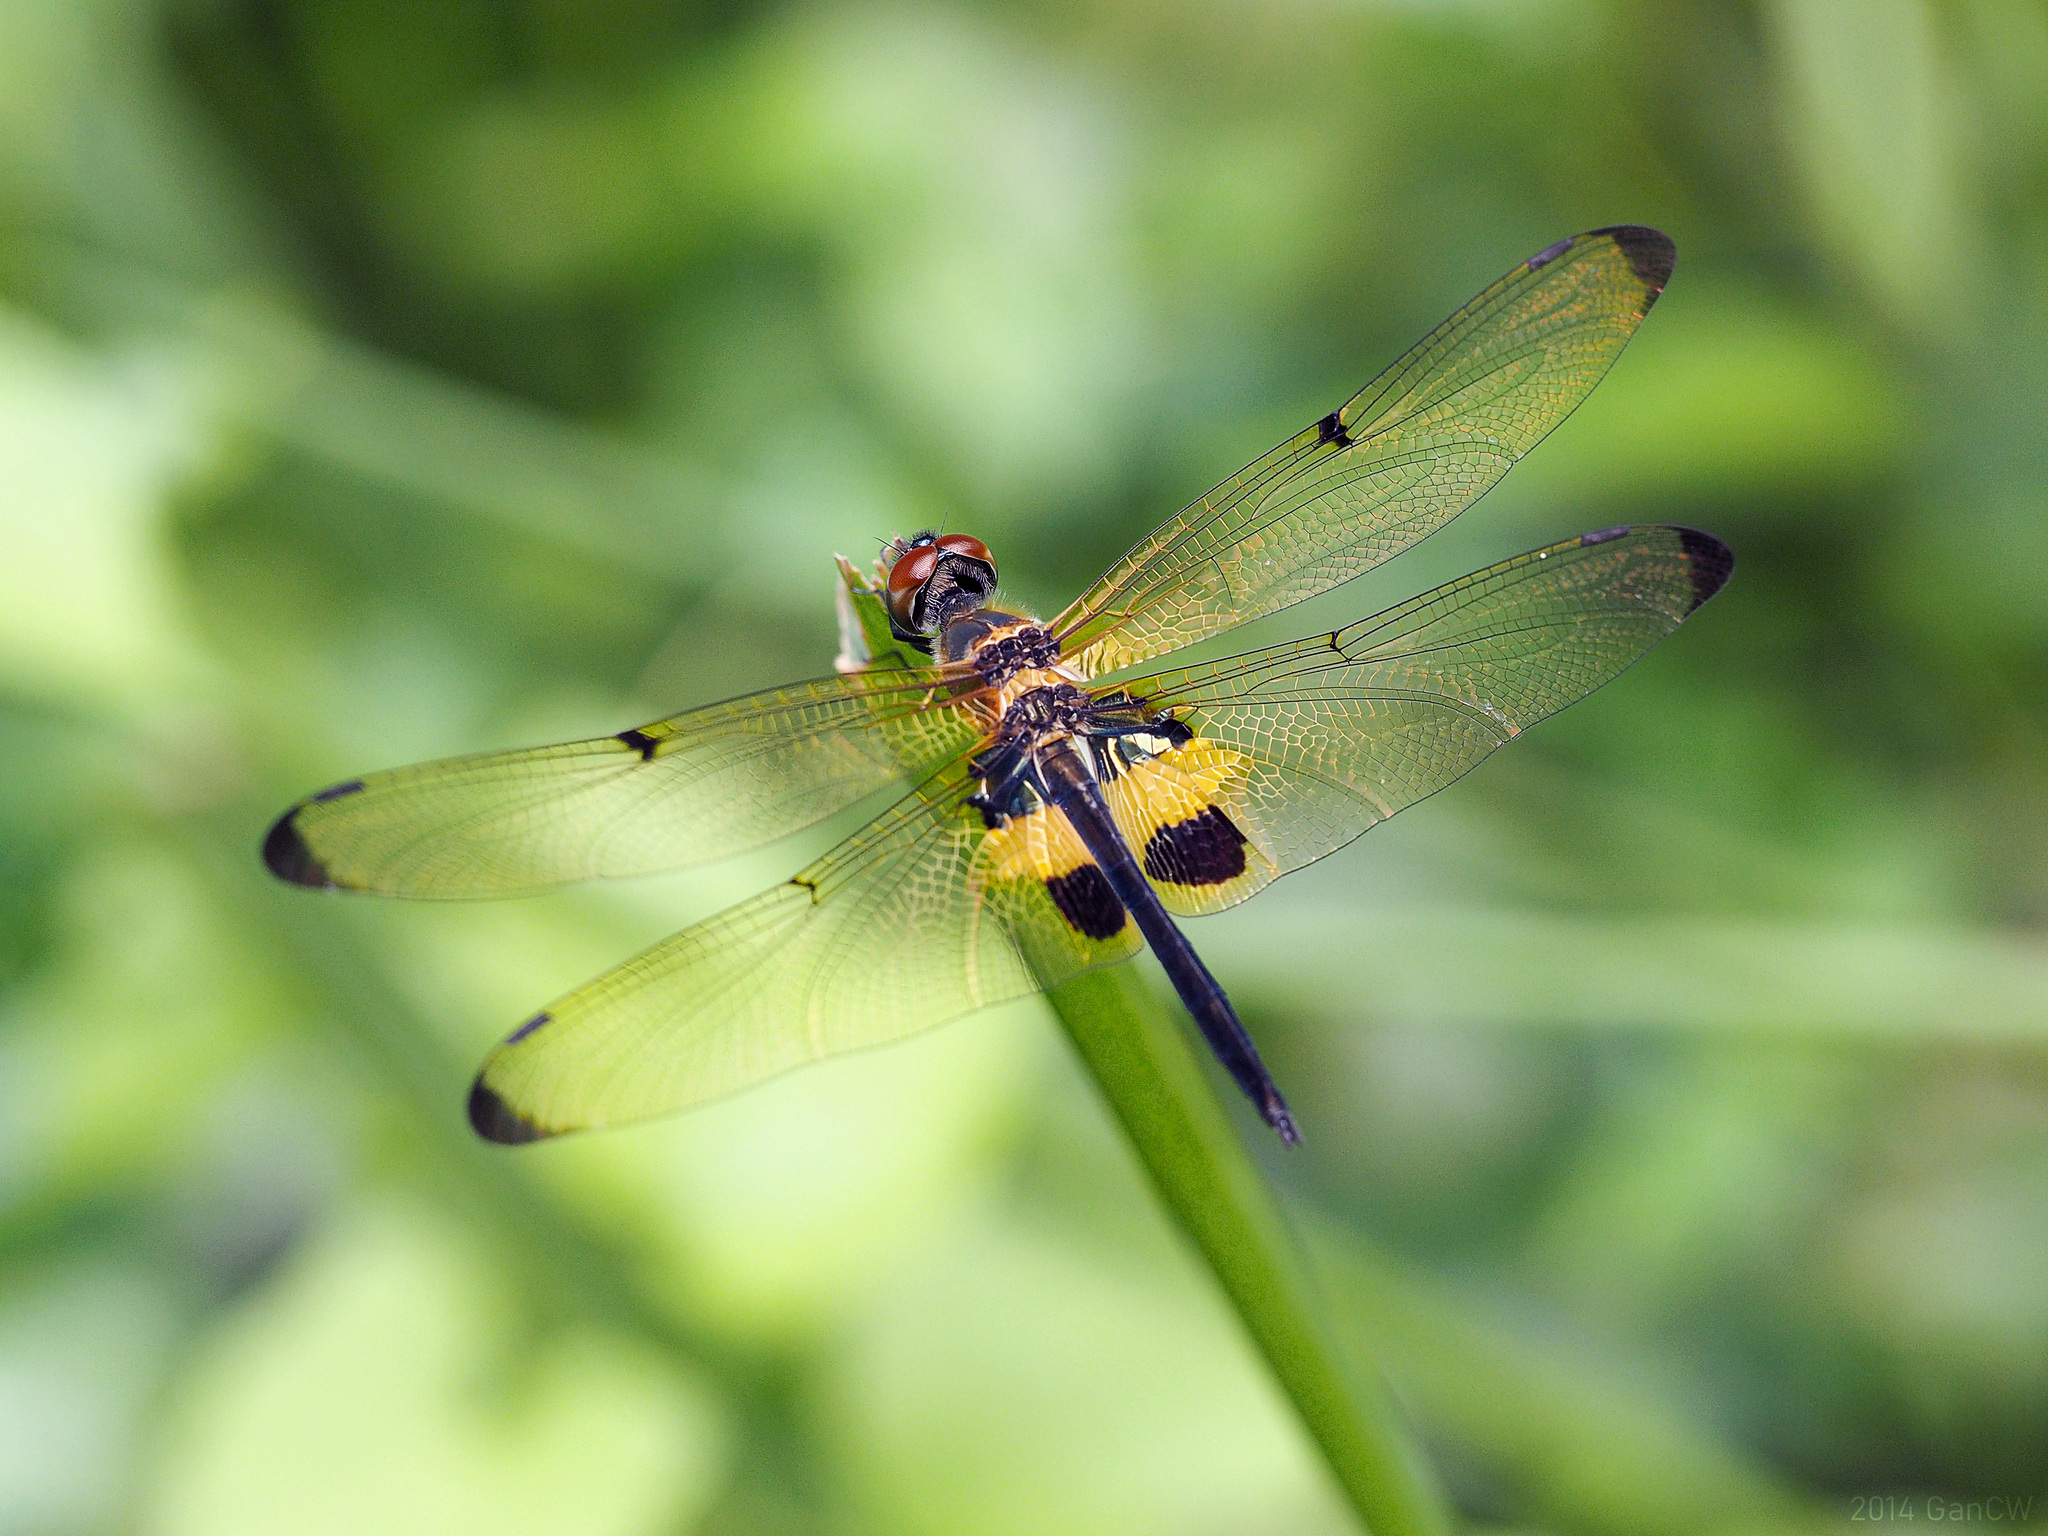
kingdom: Animalia
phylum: Arthropoda
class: Insecta
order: Odonata
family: Libellulidae
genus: Rhyothemis
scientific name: Rhyothemis phyllis
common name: Yellow-barred flutterer
